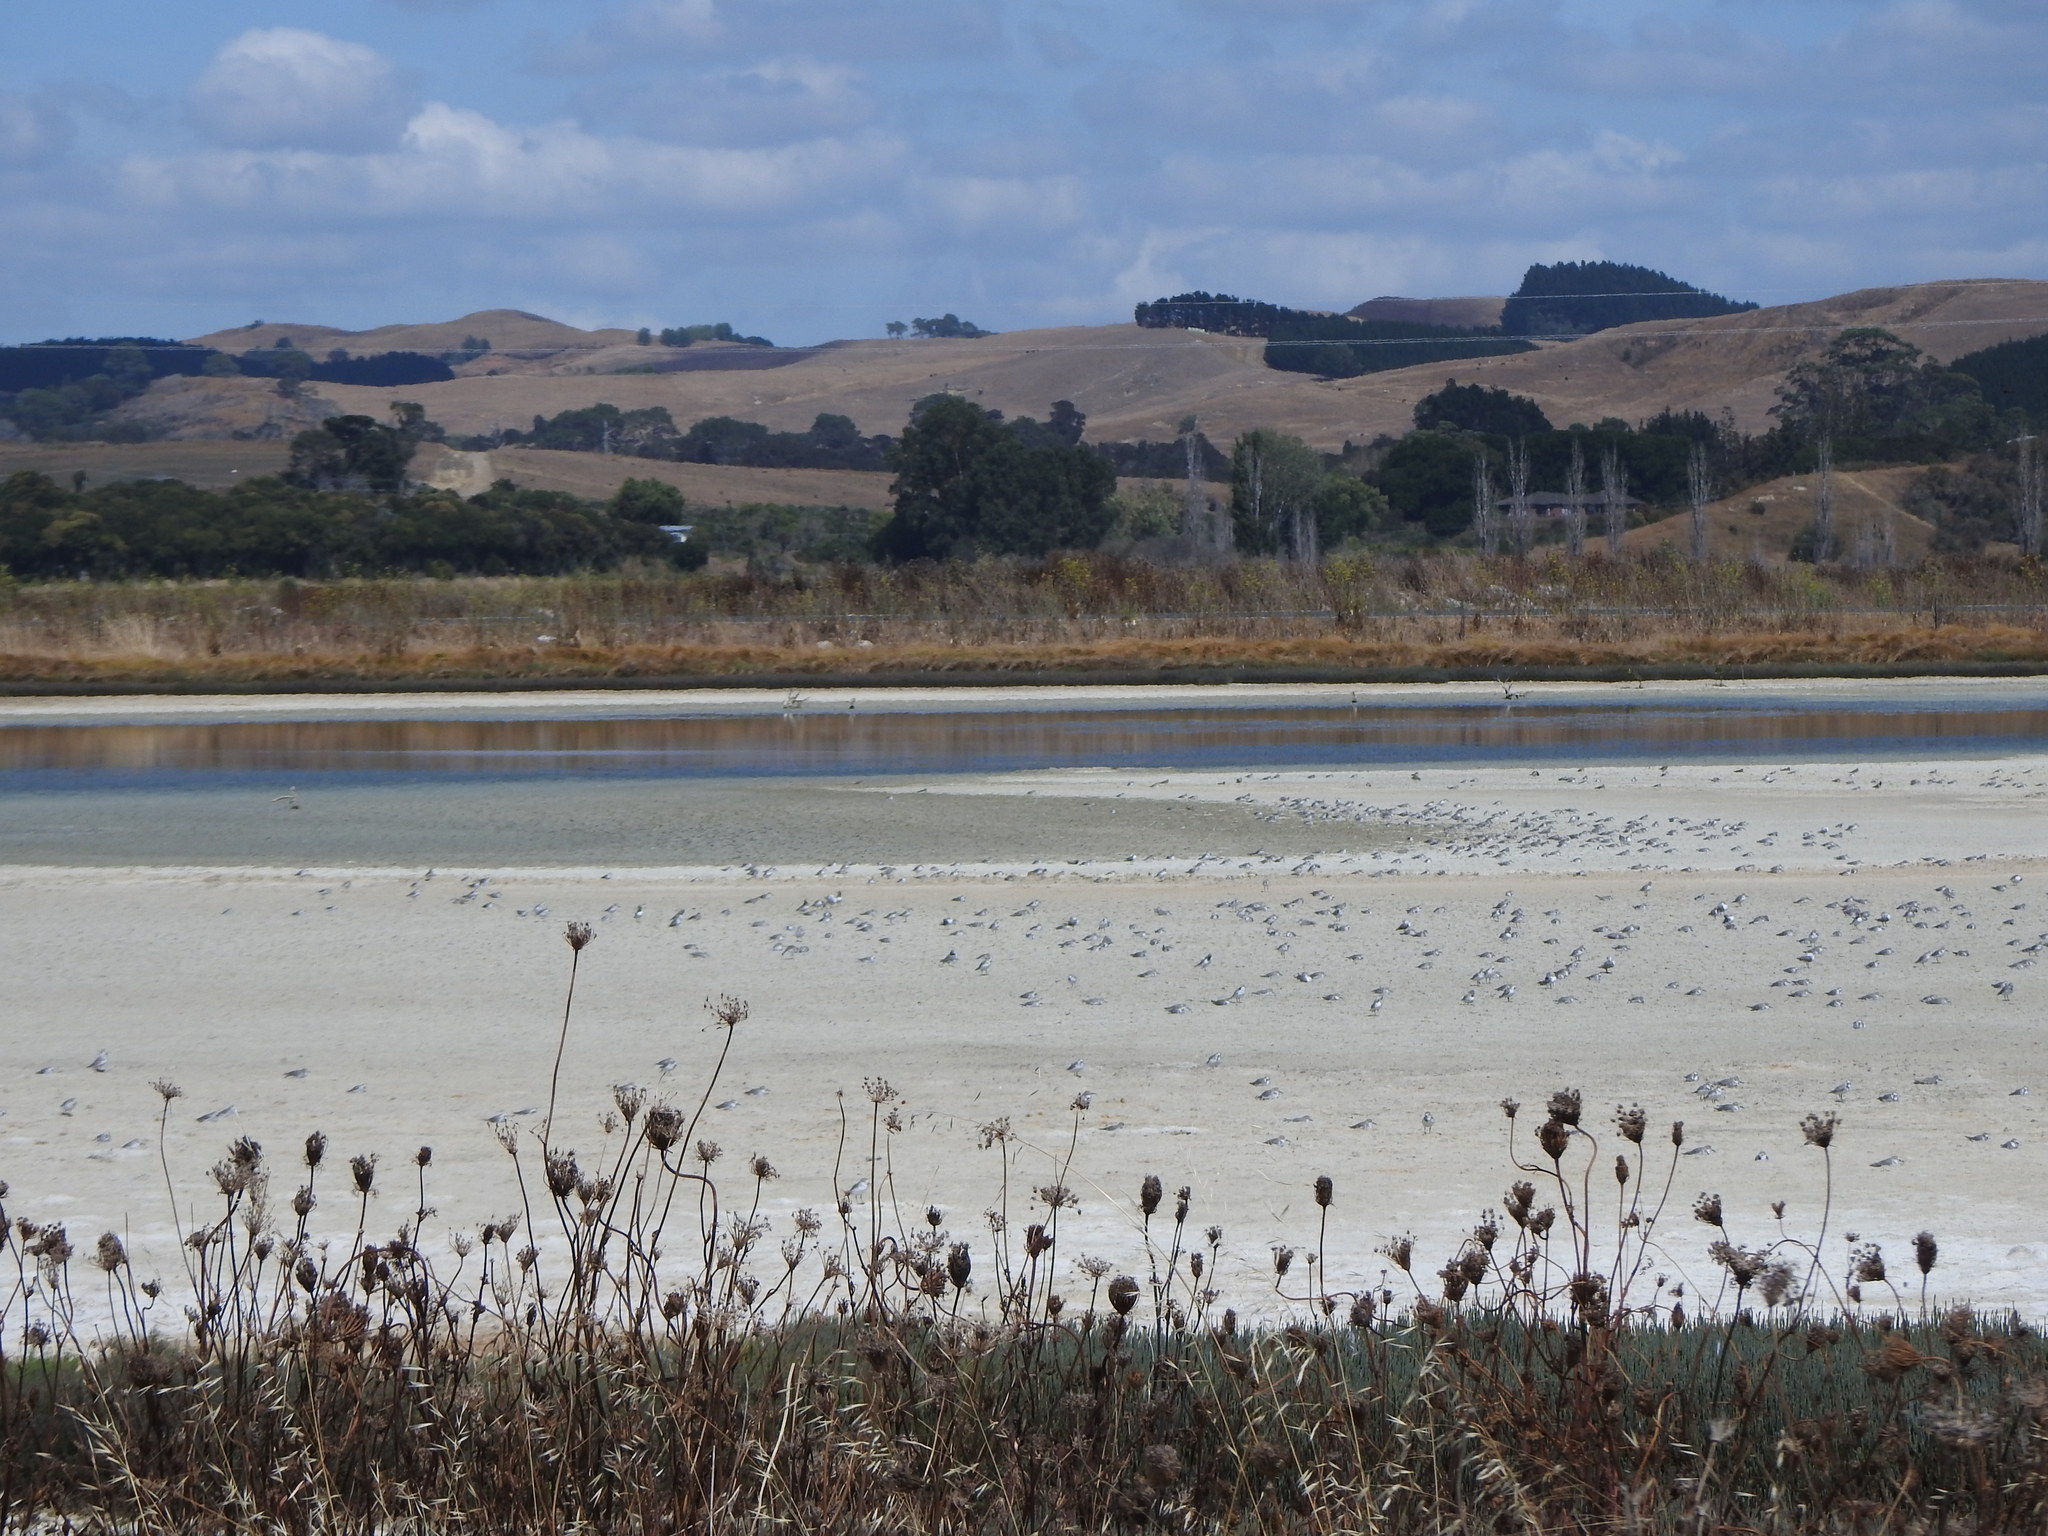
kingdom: Animalia
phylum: Chordata
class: Aves
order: Charadriiformes
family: Charadriidae
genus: Anarhynchus
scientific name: Anarhynchus frontalis
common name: Wrybill
